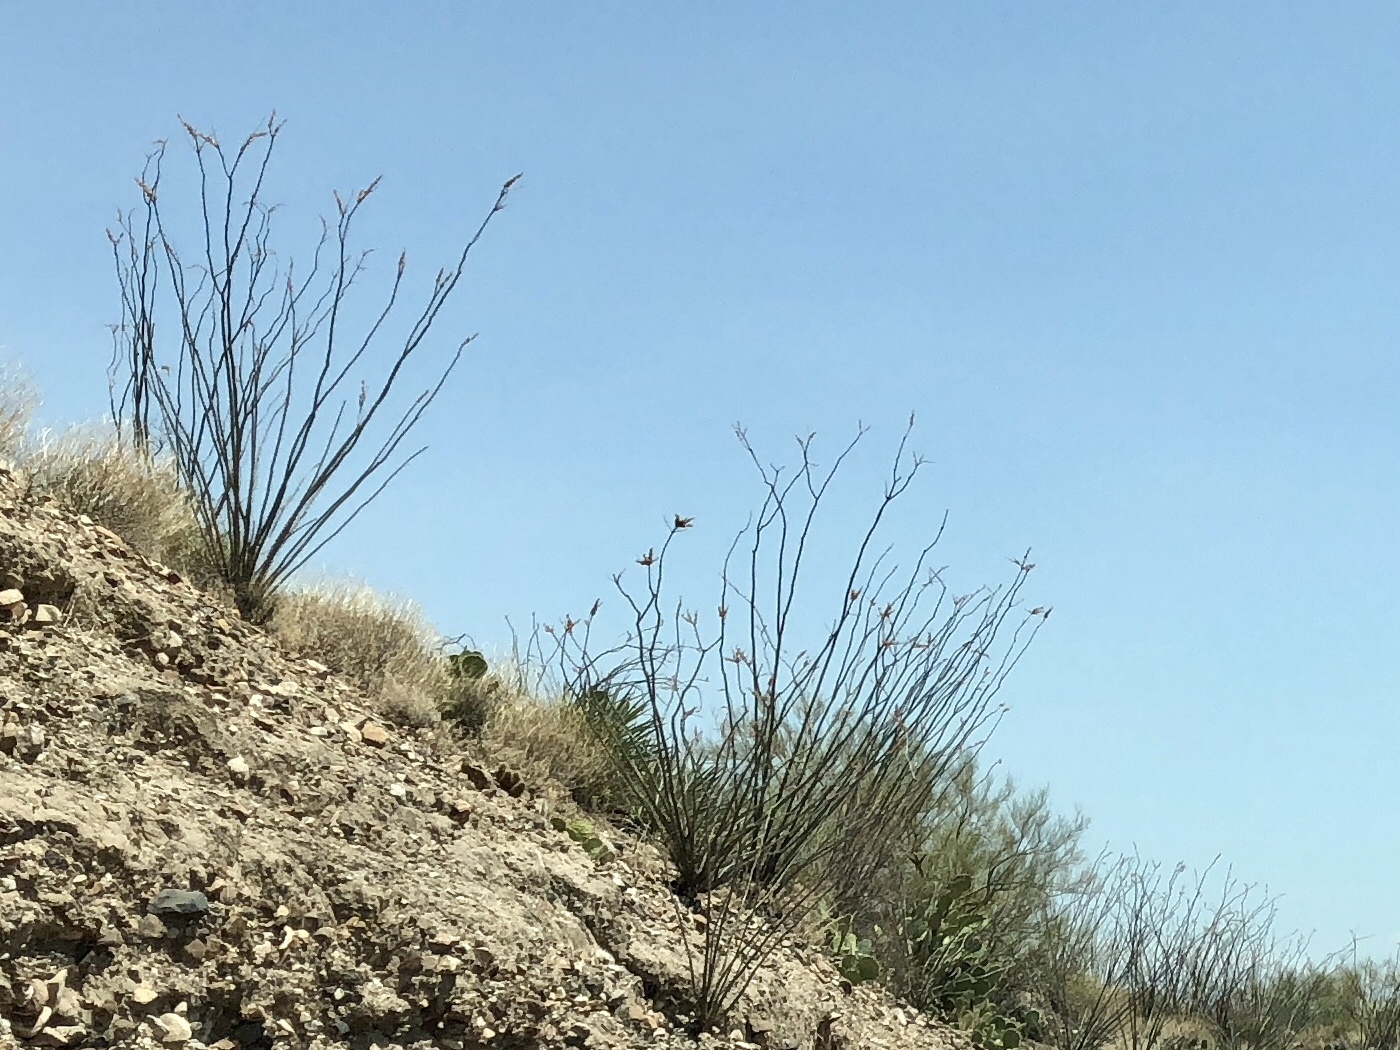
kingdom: Plantae
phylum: Tracheophyta
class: Magnoliopsida
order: Ericales
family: Fouquieriaceae
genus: Fouquieria
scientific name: Fouquieria splendens
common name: Vine-cactus
